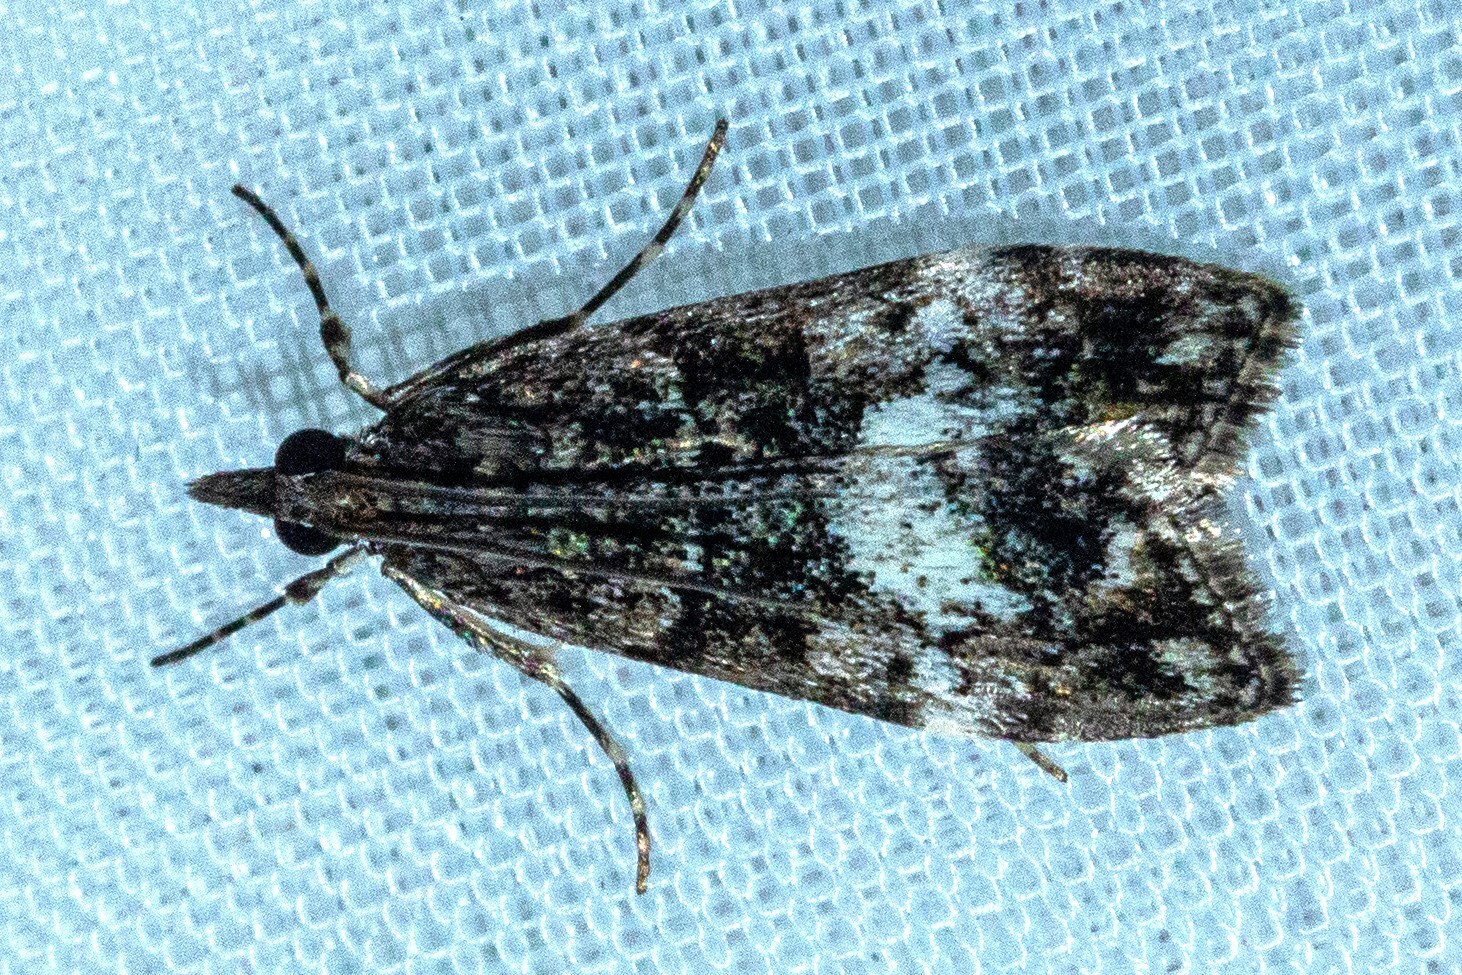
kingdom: Animalia
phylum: Arthropoda
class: Insecta
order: Lepidoptera
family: Crambidae
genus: Eudonia
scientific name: Eudonia dinodes
